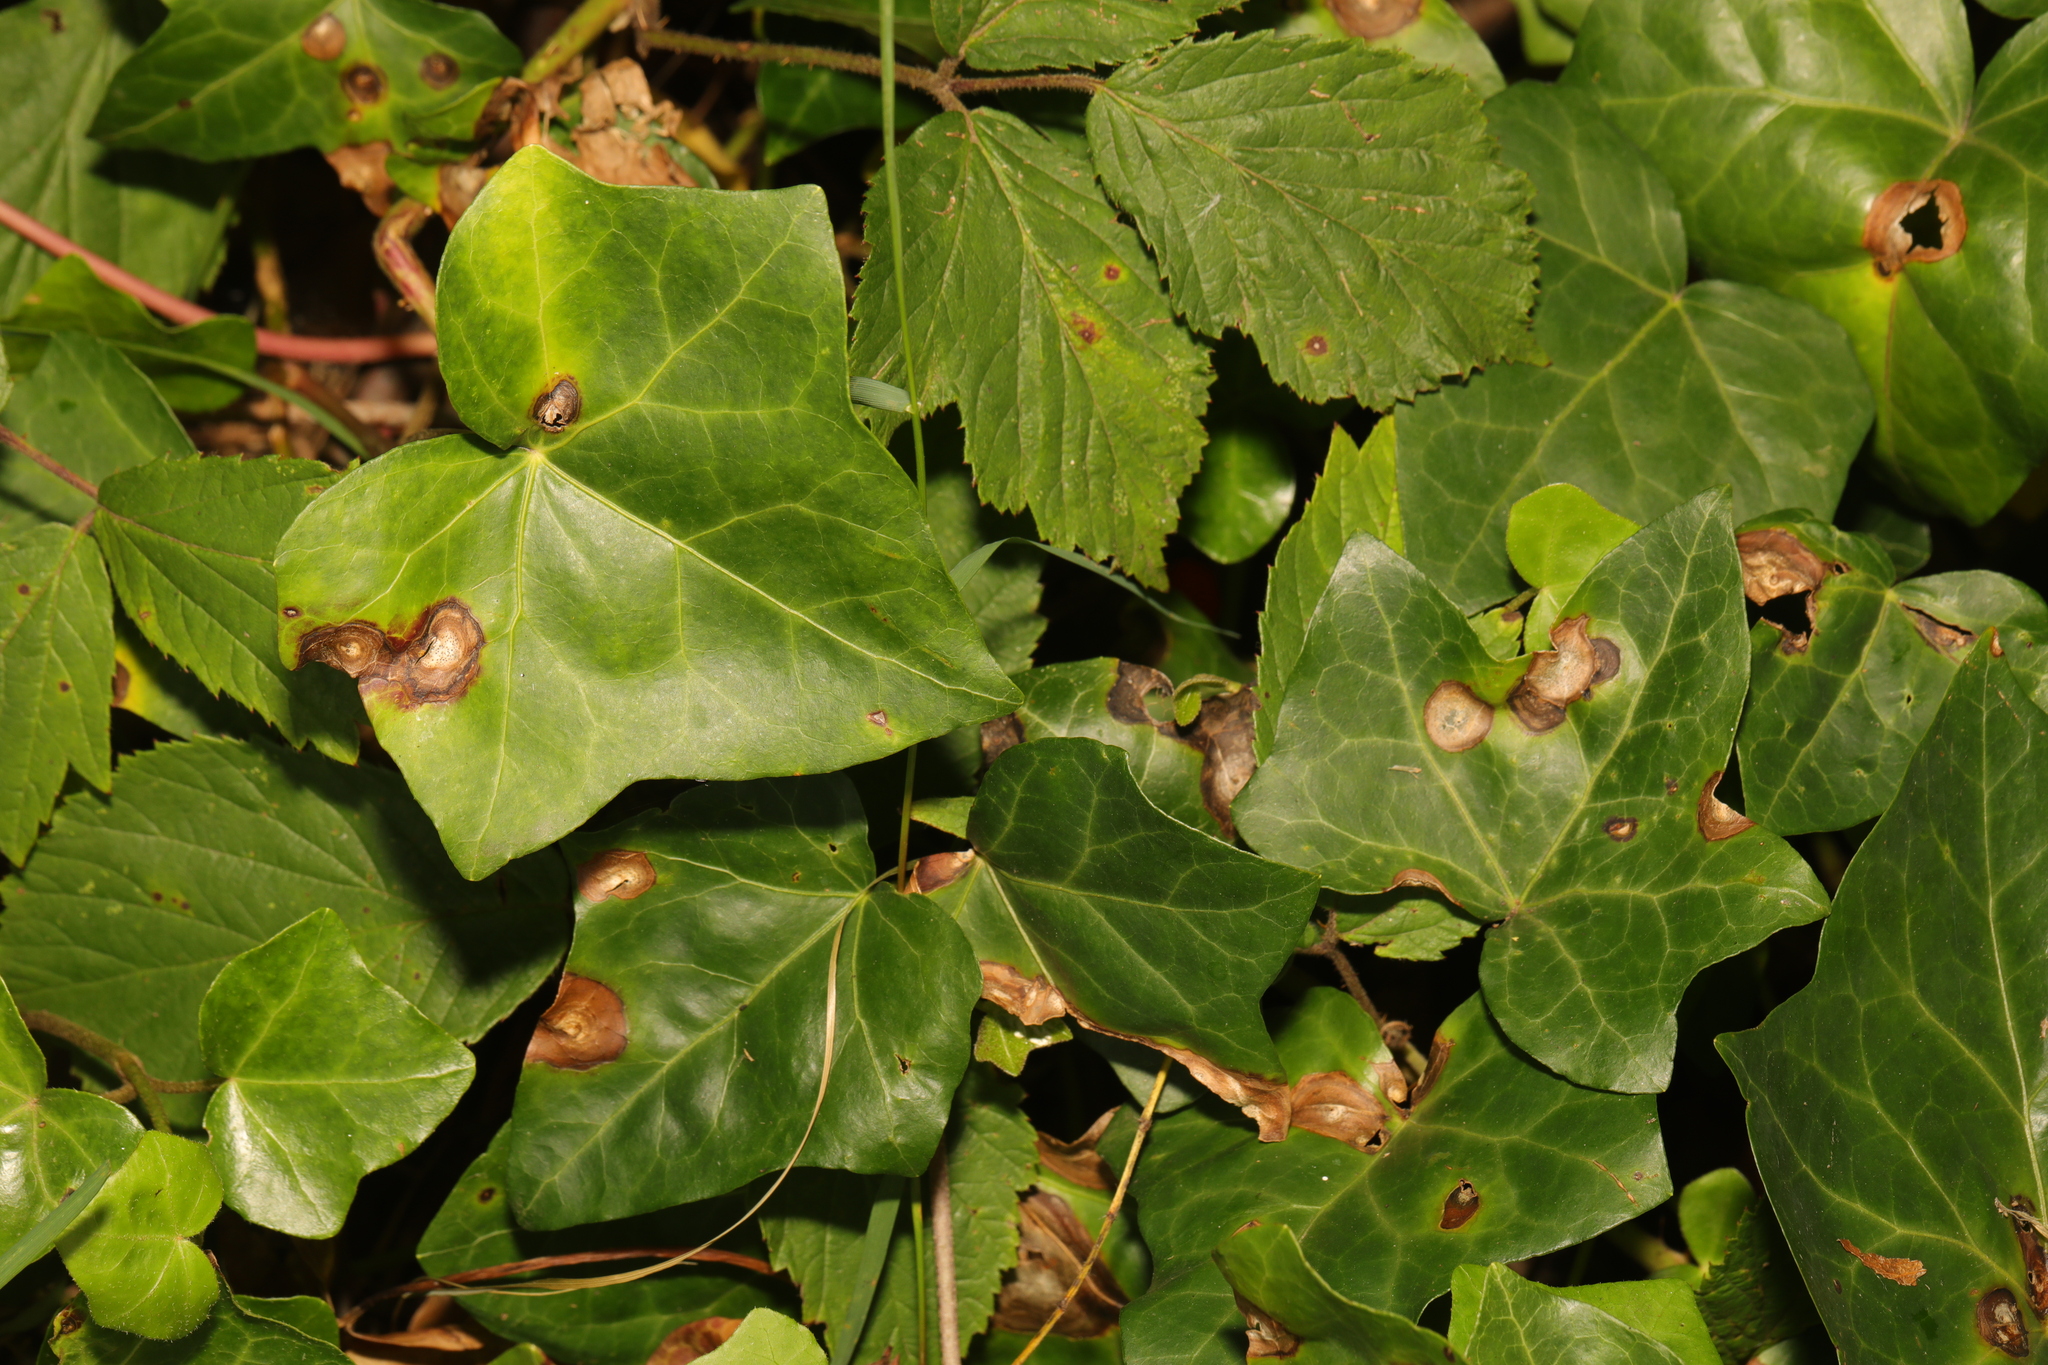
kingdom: Plantae
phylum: Tracheophyta
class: Magnoliopsida
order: Apiales
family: Araliaceae
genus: Hedera
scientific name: Hedera helix
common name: Ivy
